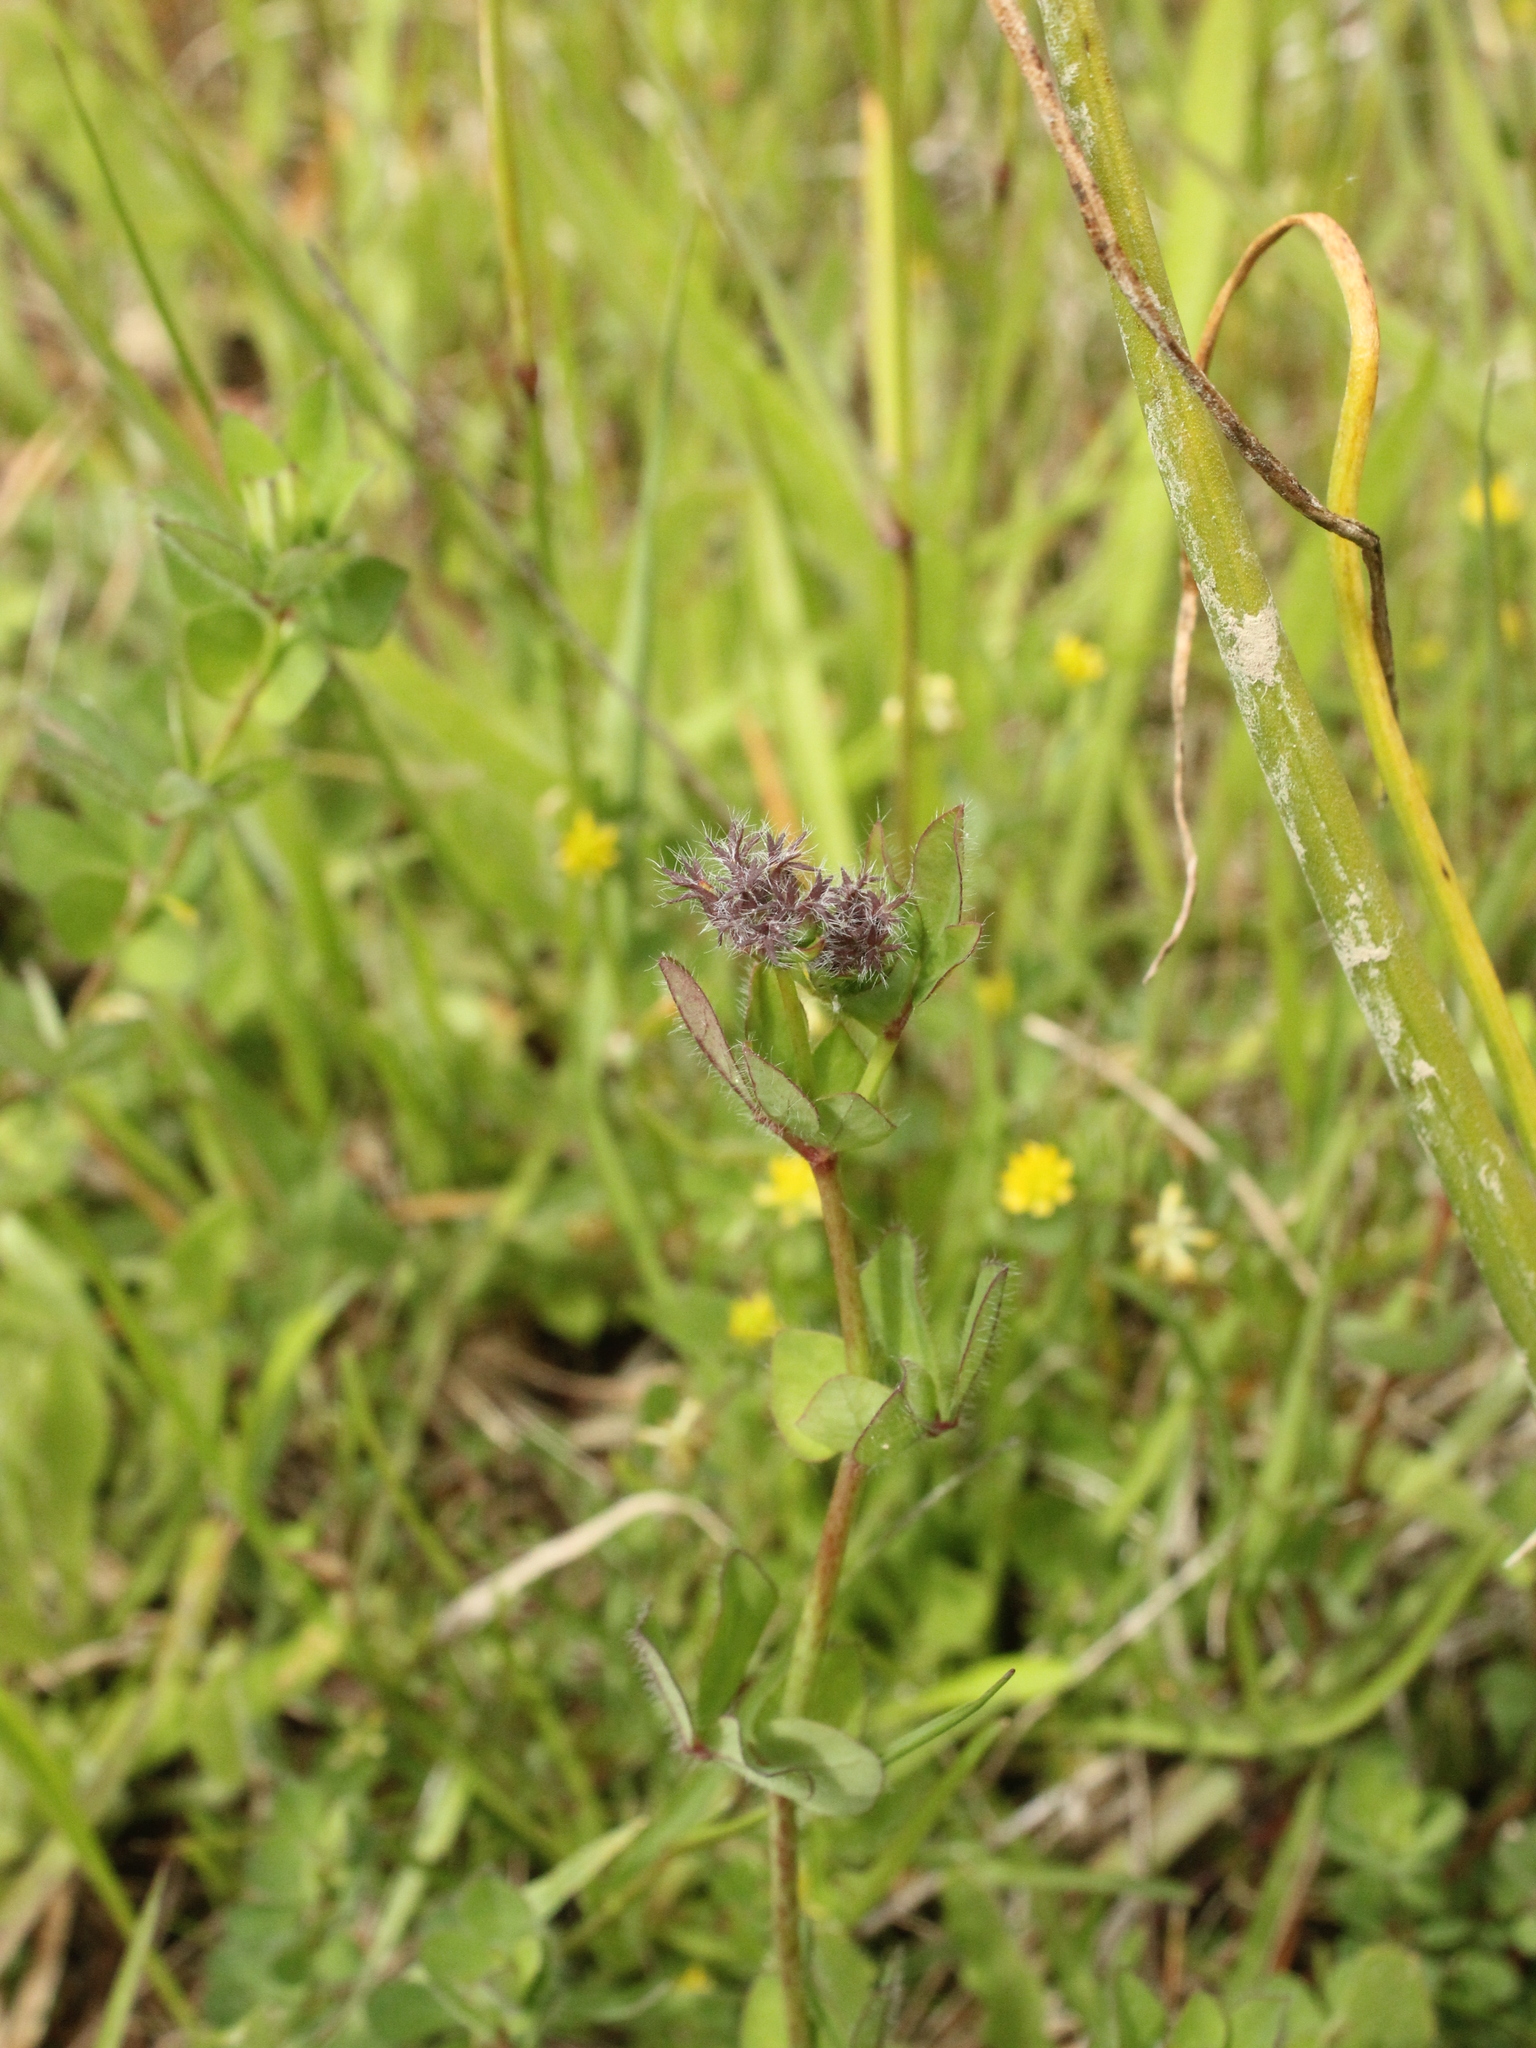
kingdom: Plantae
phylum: Tracheophyta
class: Magnoliopsida
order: Fabales
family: Fabaceae
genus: Lotus
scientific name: Lotus pedunculatus
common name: Greater birdsfoot-trefoil
